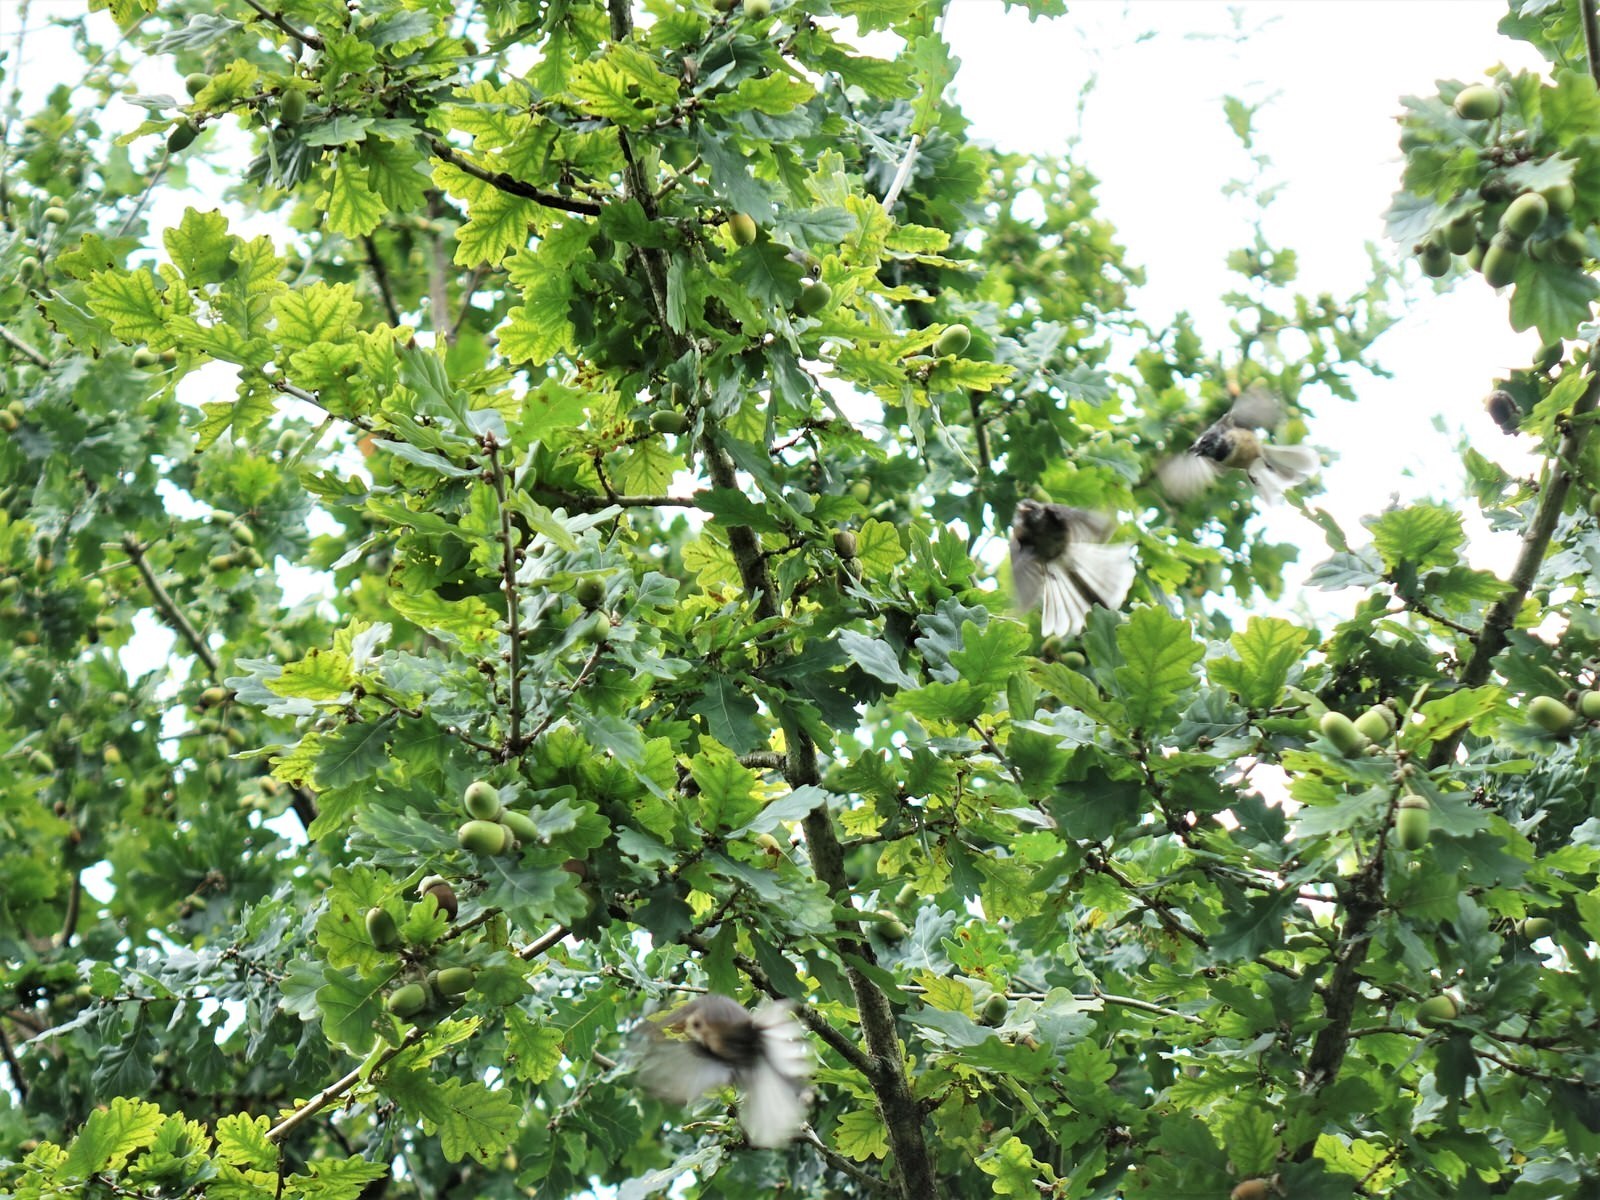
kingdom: Animalia
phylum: Chordata
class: Aves
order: Passeriformes
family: Rhipiduridae
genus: Rhipidura
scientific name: Rhipidura fuliginosa
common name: New zealand fantail
